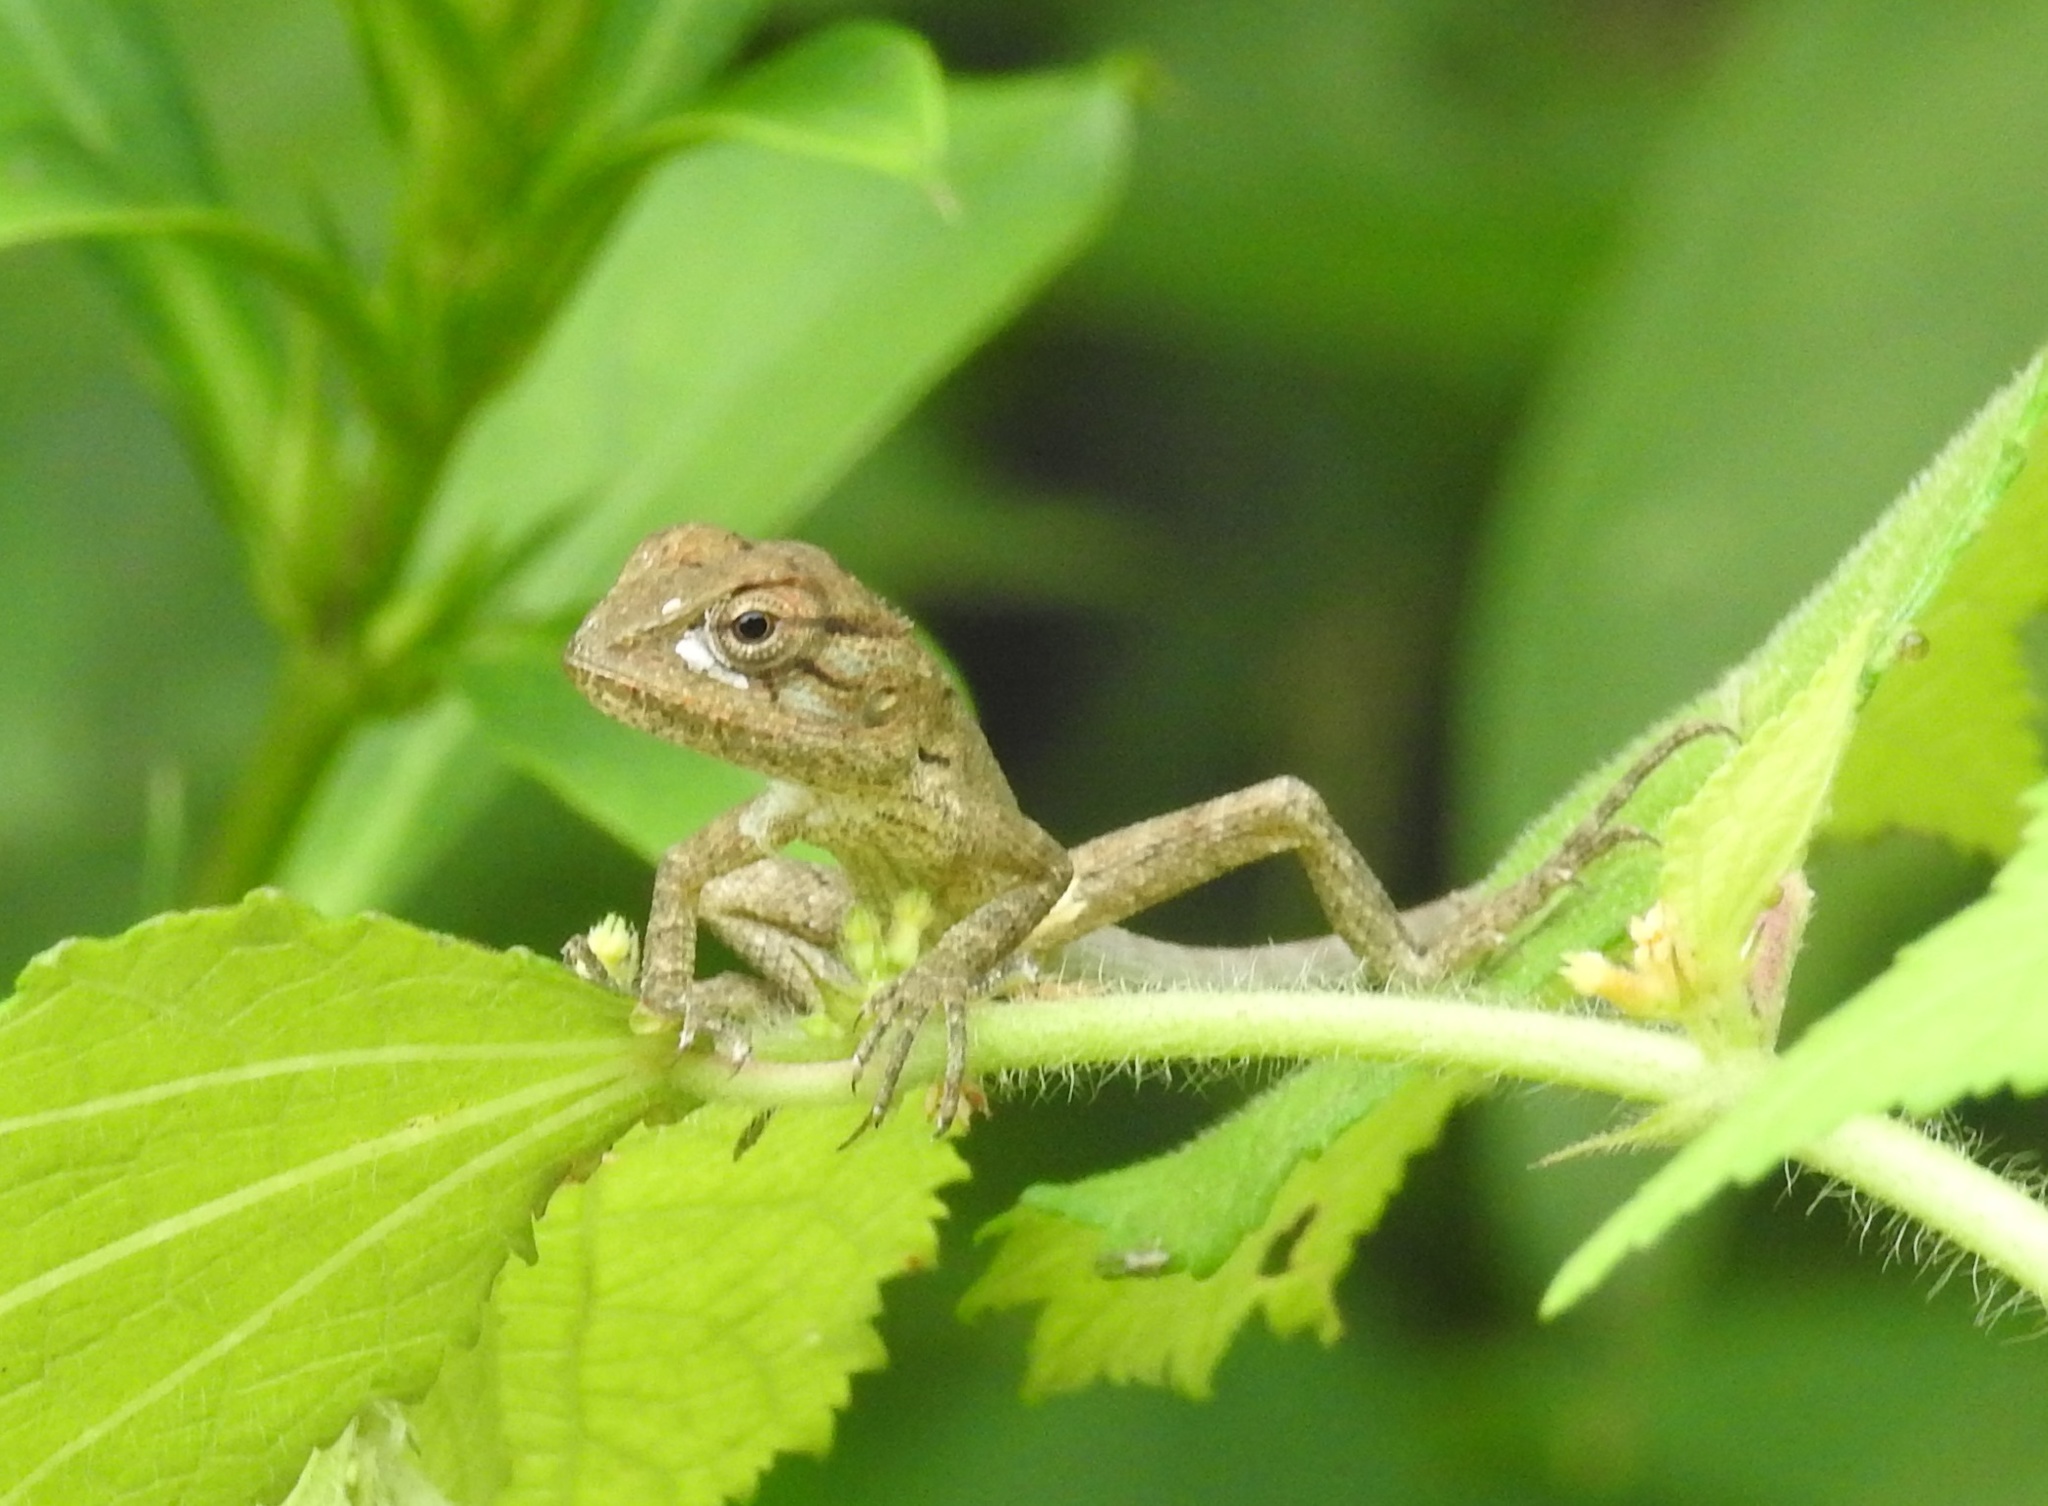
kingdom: Animalia
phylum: Chordata
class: Squamata
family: Agamidae
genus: Calotes
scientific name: Calotes versicolor
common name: Oriental garden lizard
